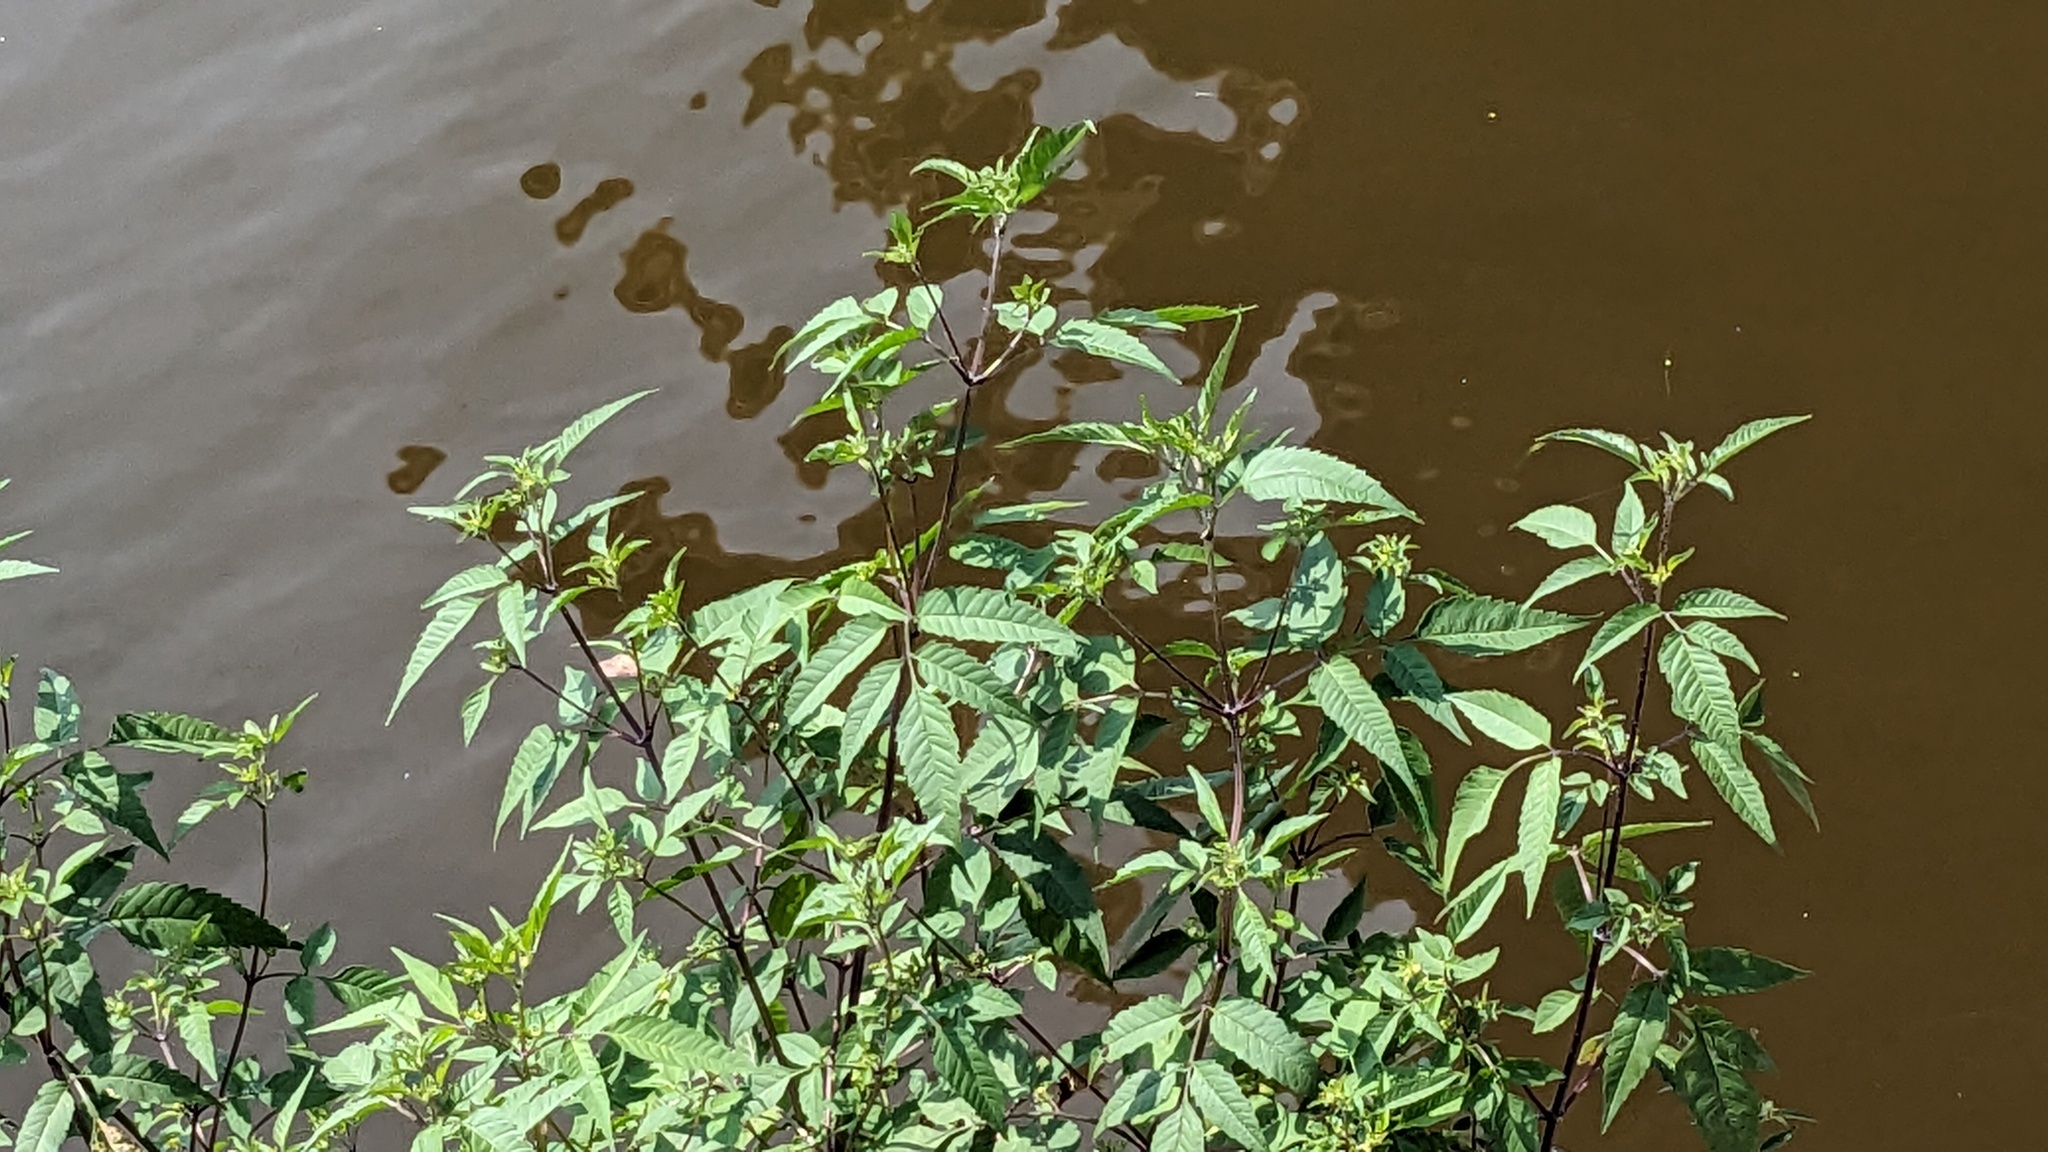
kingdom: Plantae
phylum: Tracheophyta
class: Magnoliopsida
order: Asterales
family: Asteraceae
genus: Bidens
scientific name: Bidens frondosa
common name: Beggarticks
